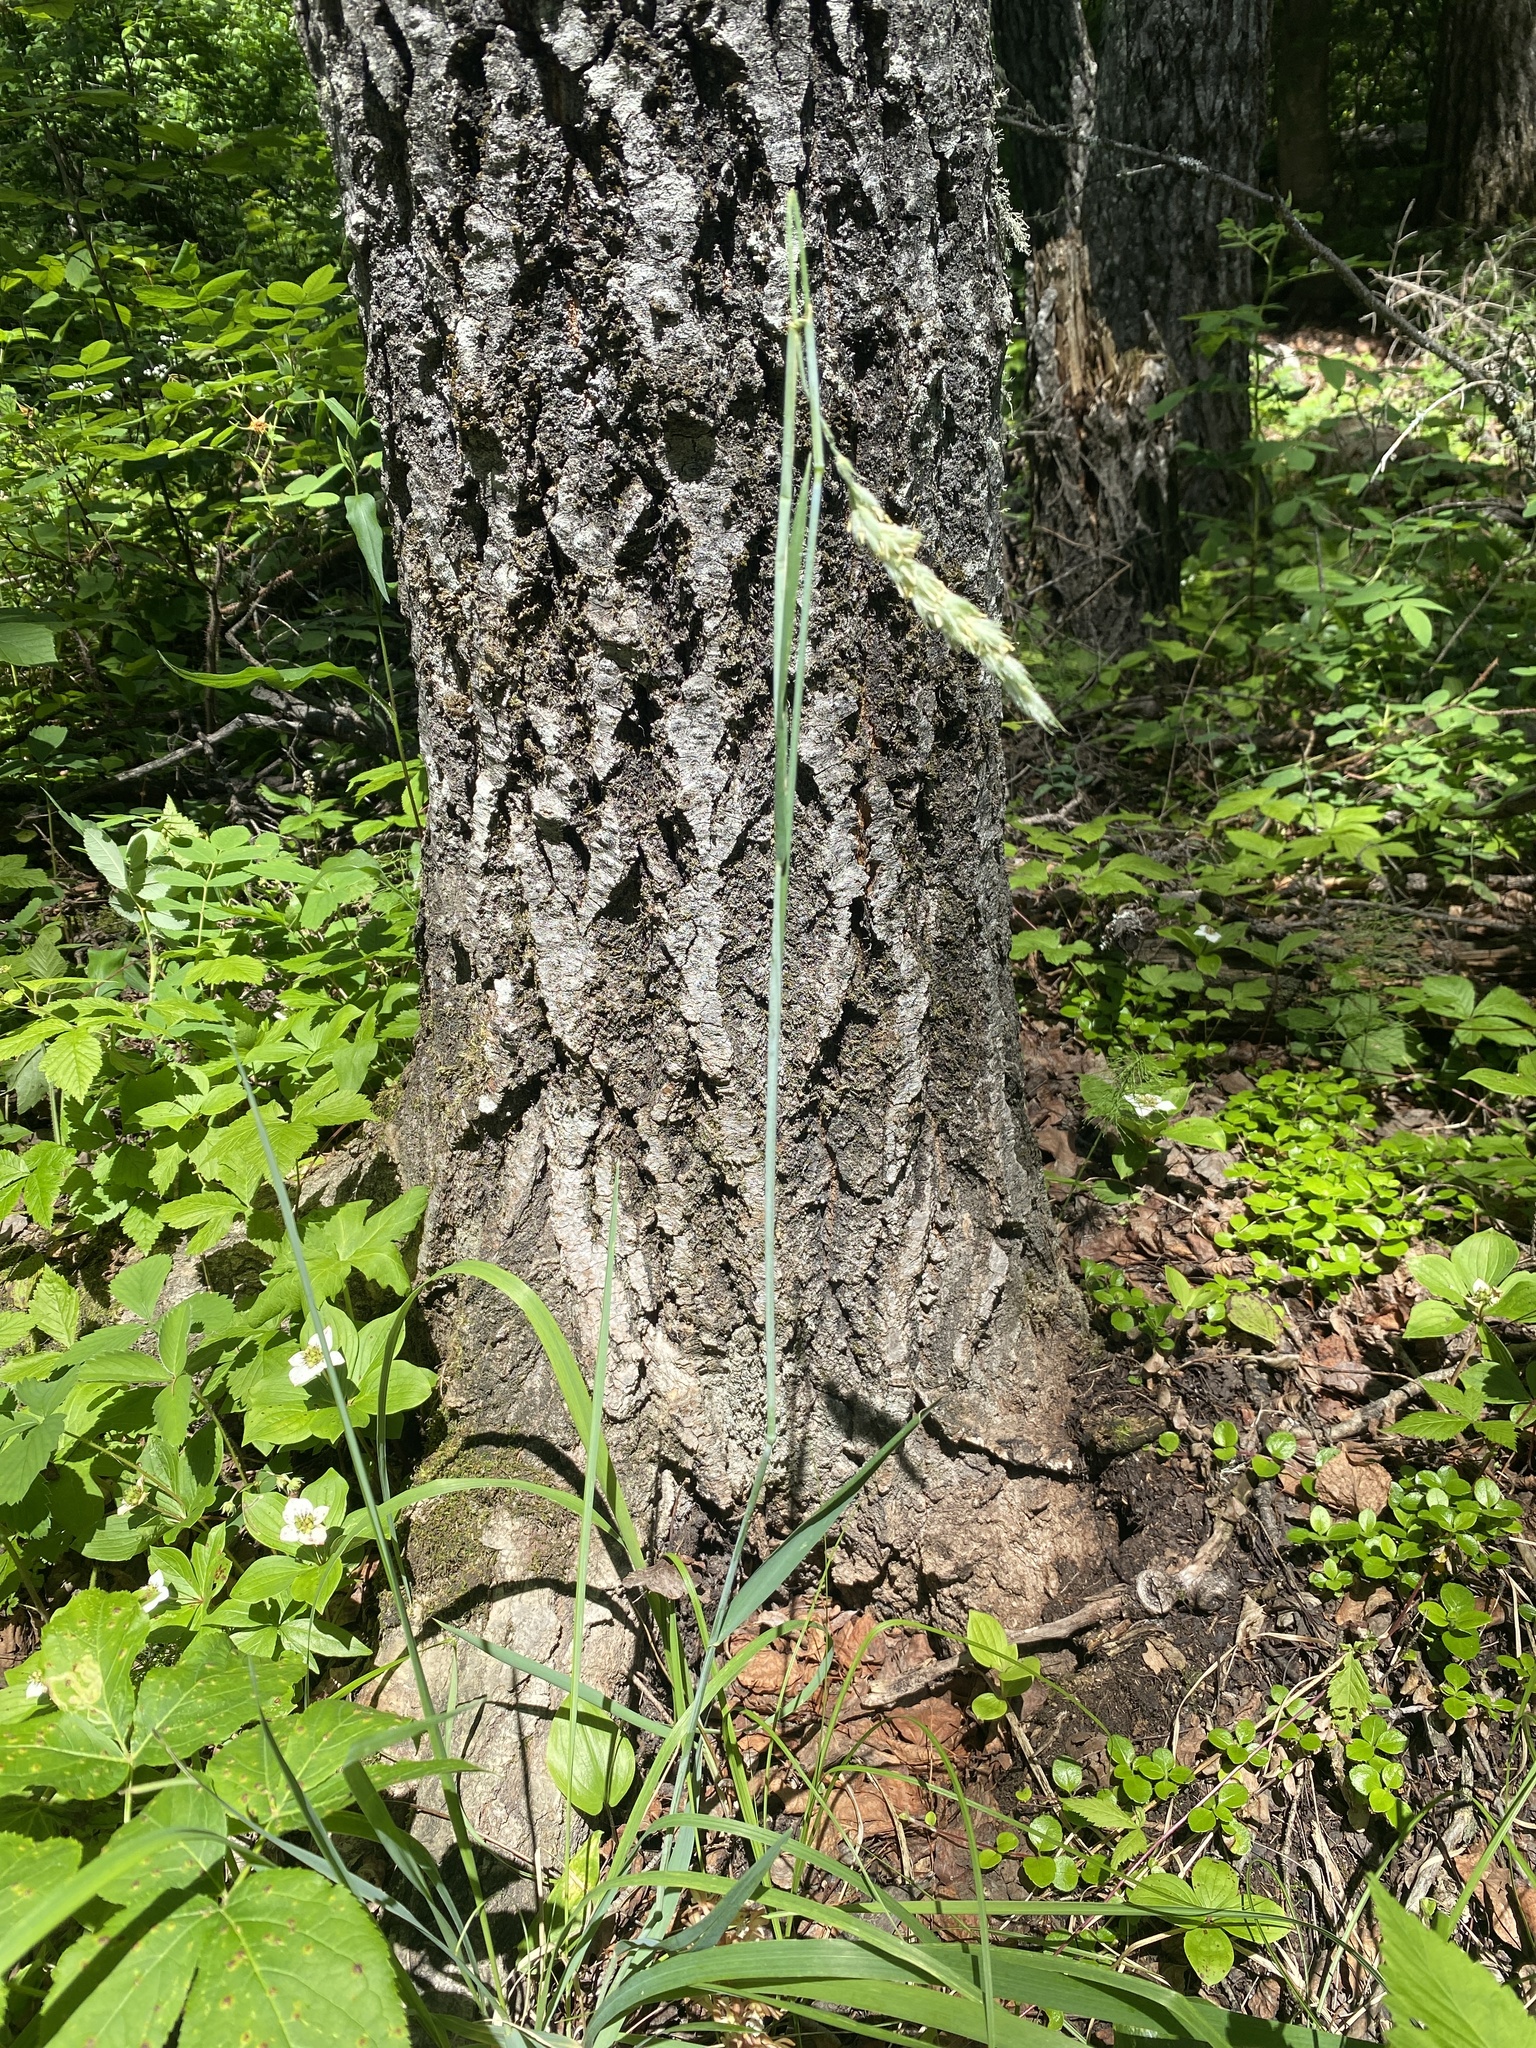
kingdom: Plantae
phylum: Tracheophyta
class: Liliopsida
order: Poales
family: Poaceae
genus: Leymus
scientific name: Leymus innovatus
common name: Boreal wild rye
